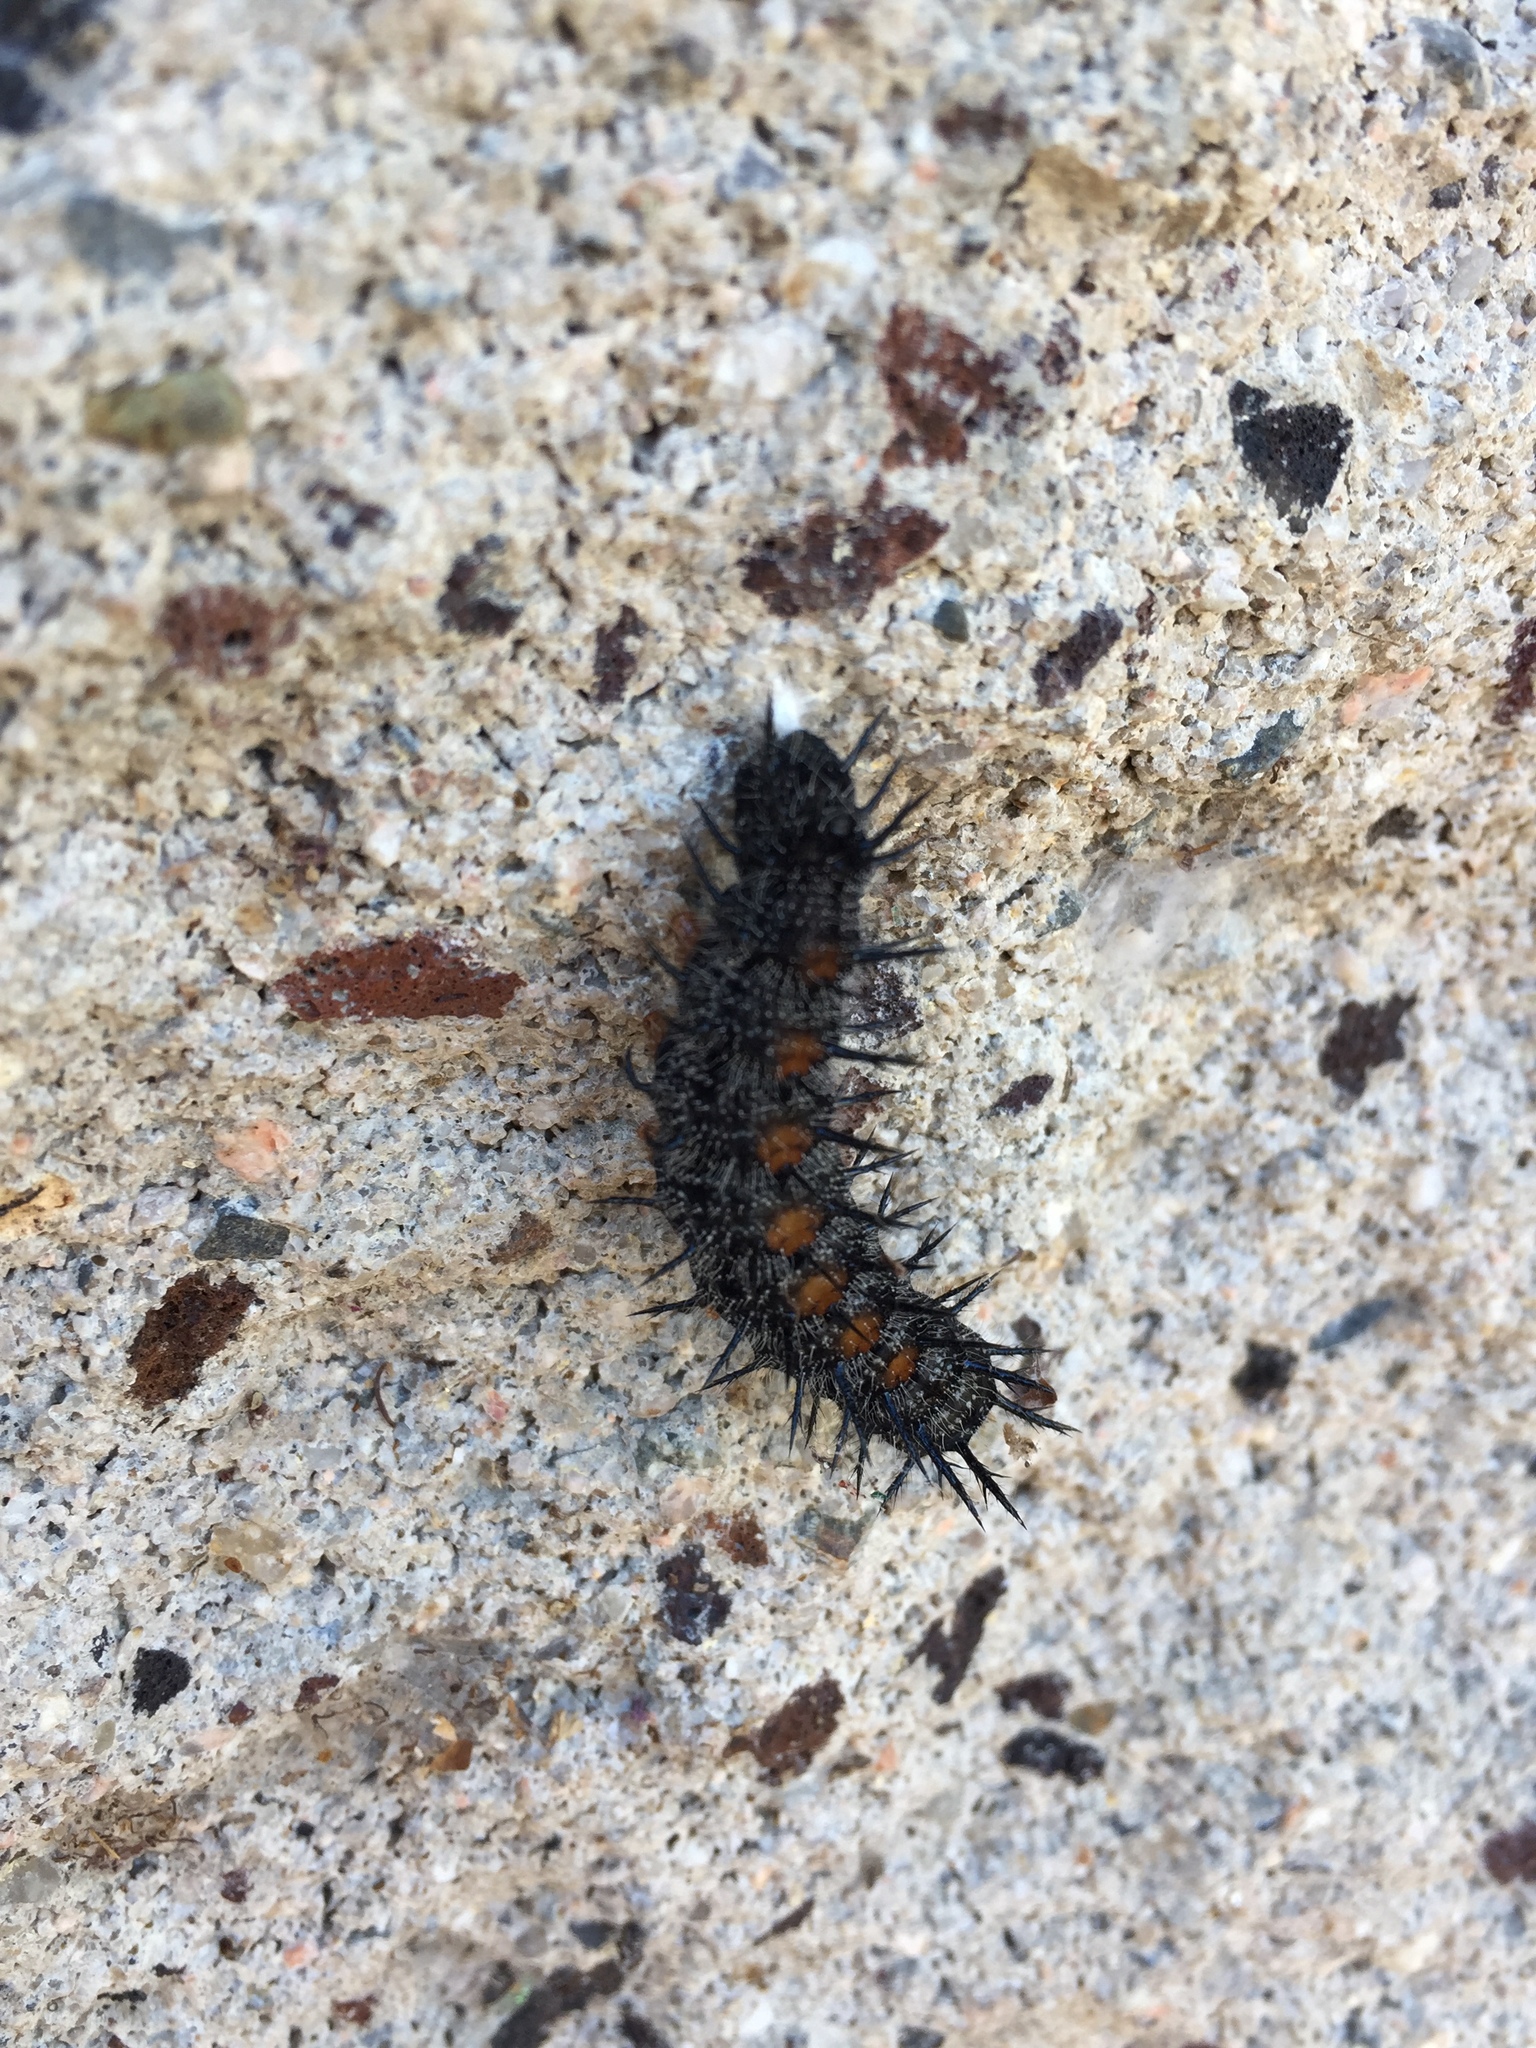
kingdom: Animalia
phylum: Arthropoda
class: Insecta
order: Lepidoptera
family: Nymphalidae
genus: Nymphalis
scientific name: Nymphalis antiopa
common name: Camberwell beauty
